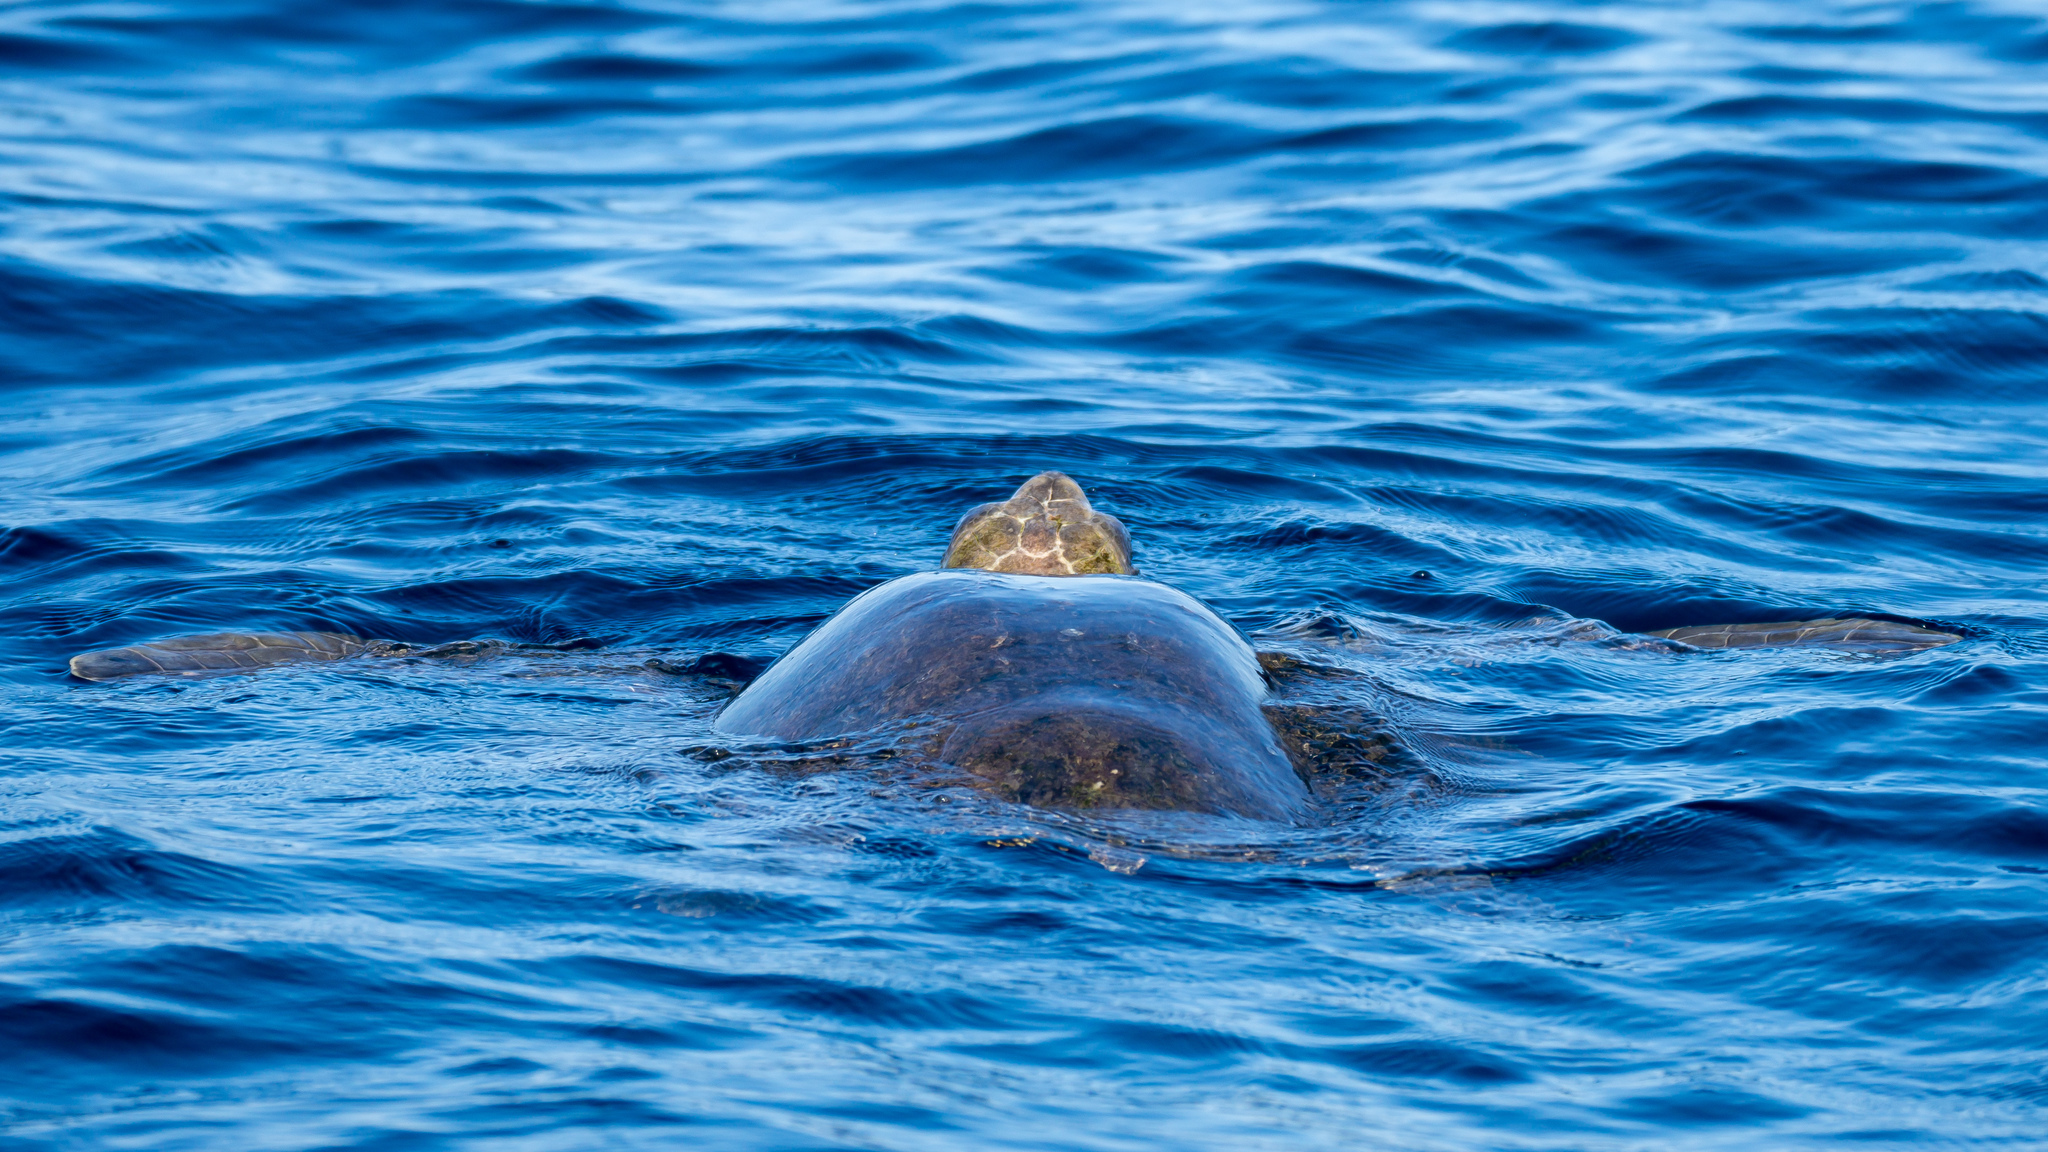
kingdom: Animalia
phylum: Chordata
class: Testudines
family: Cheloniidae
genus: Lepidochelys
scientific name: Lepidochelys olivacea
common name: Olive ridley
